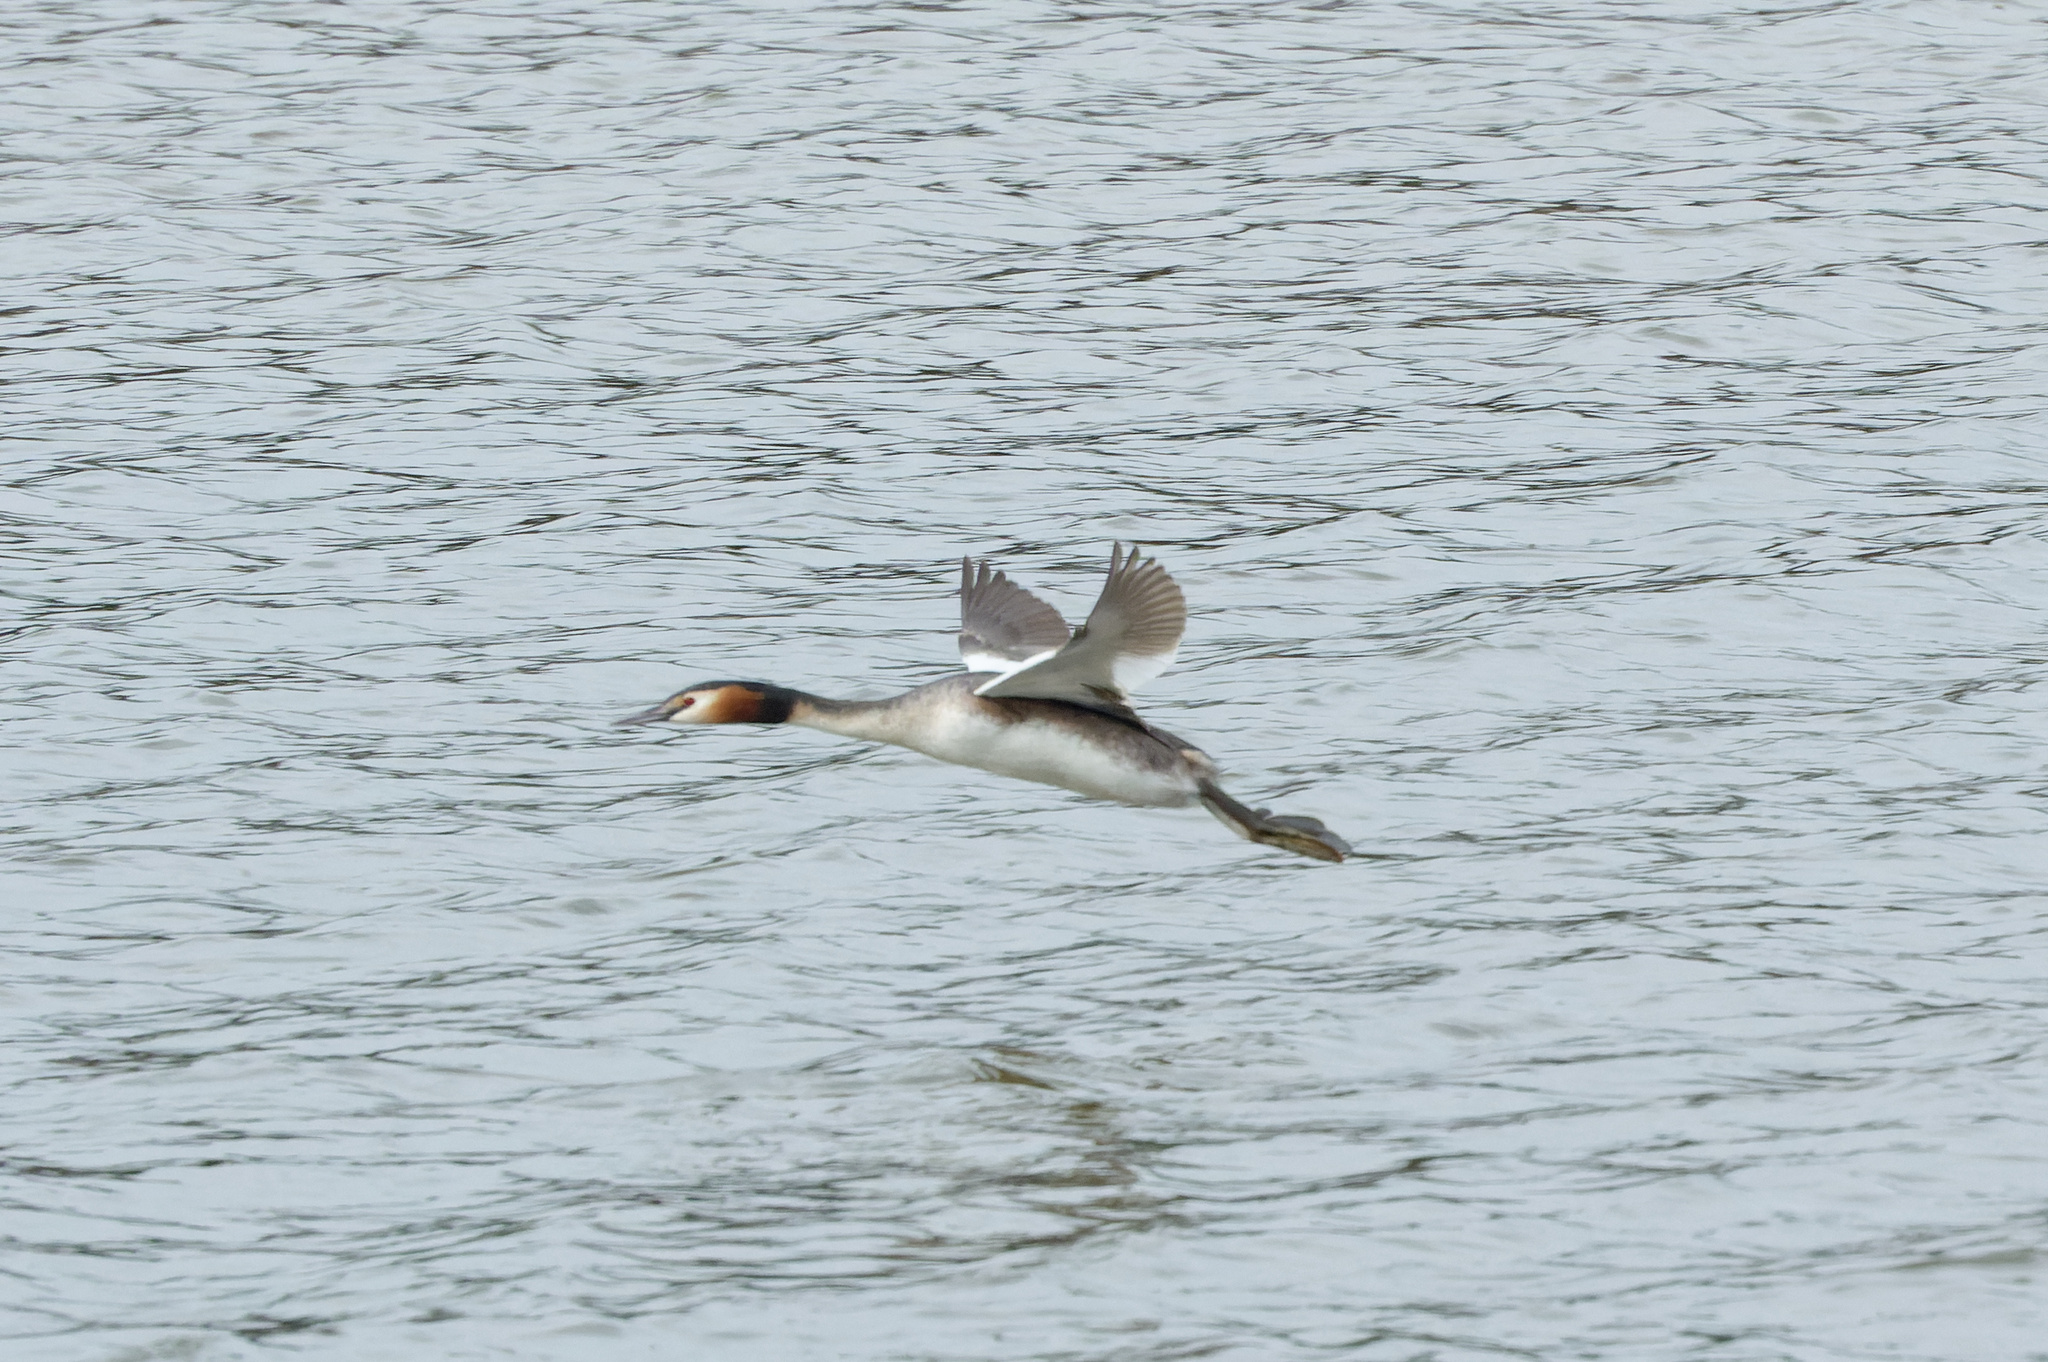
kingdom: Animalia
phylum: Chordata
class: Aves
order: Podicipediformes
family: Podicipedidae
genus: Podiceps
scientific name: Podiceps cristatus
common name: Great crested grebe
